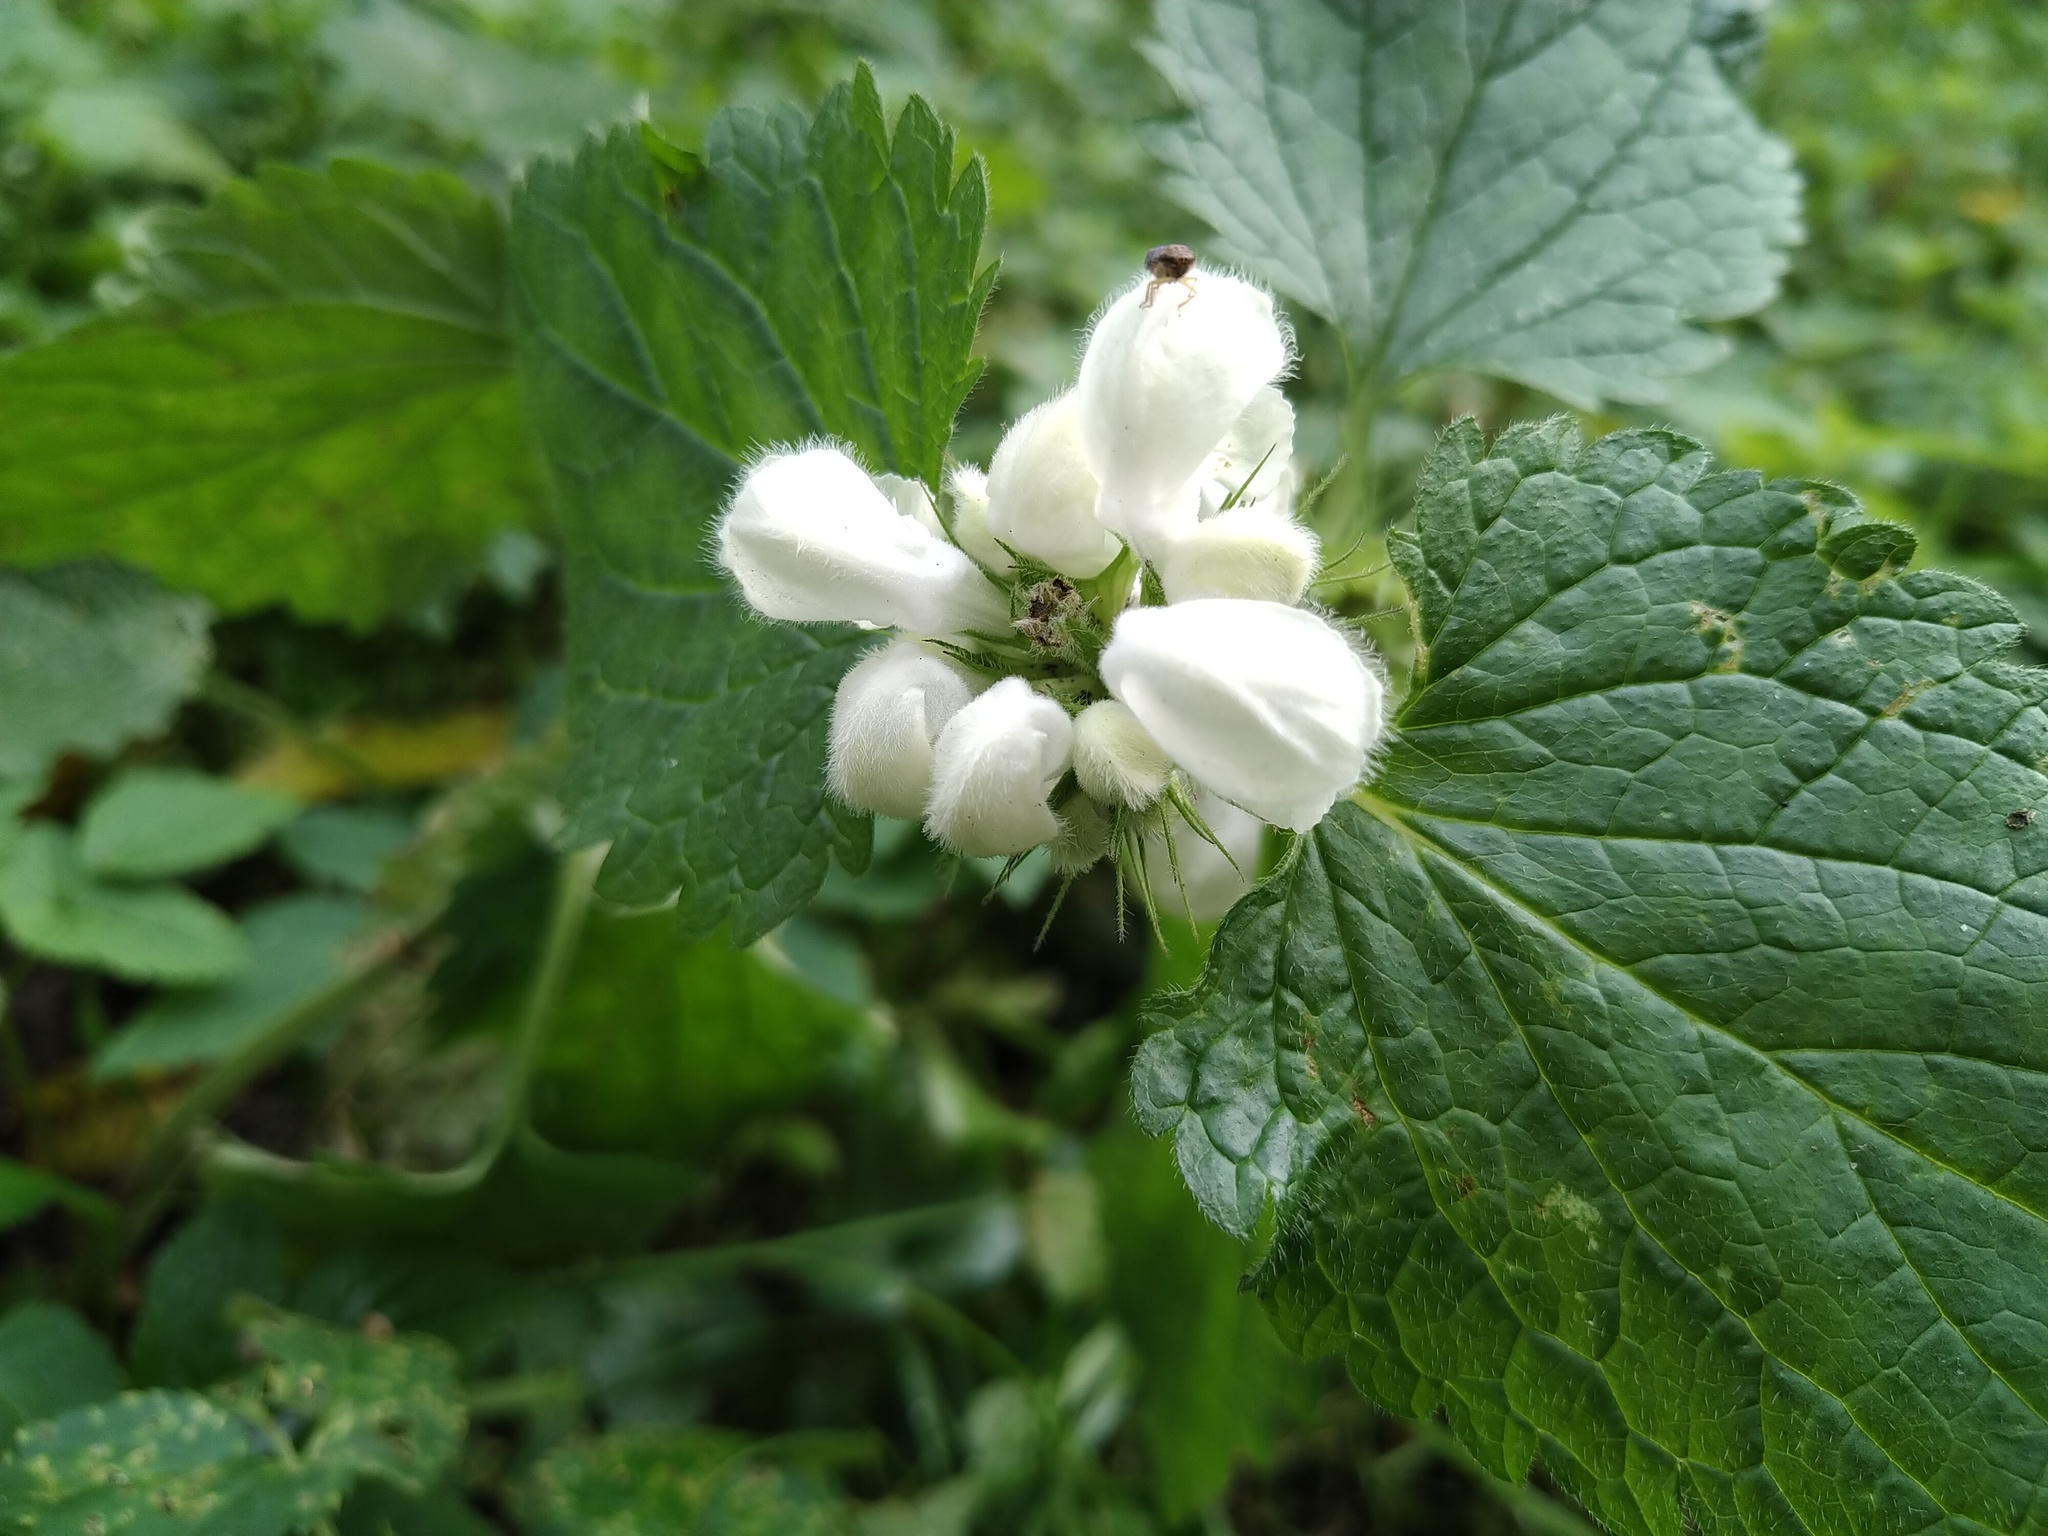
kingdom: Plantae
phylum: Tracheophyta
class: Magnoliopsida
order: Lamiales
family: Lamiaceae
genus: Lamium
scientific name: Lamium album
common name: White dead-nettle
